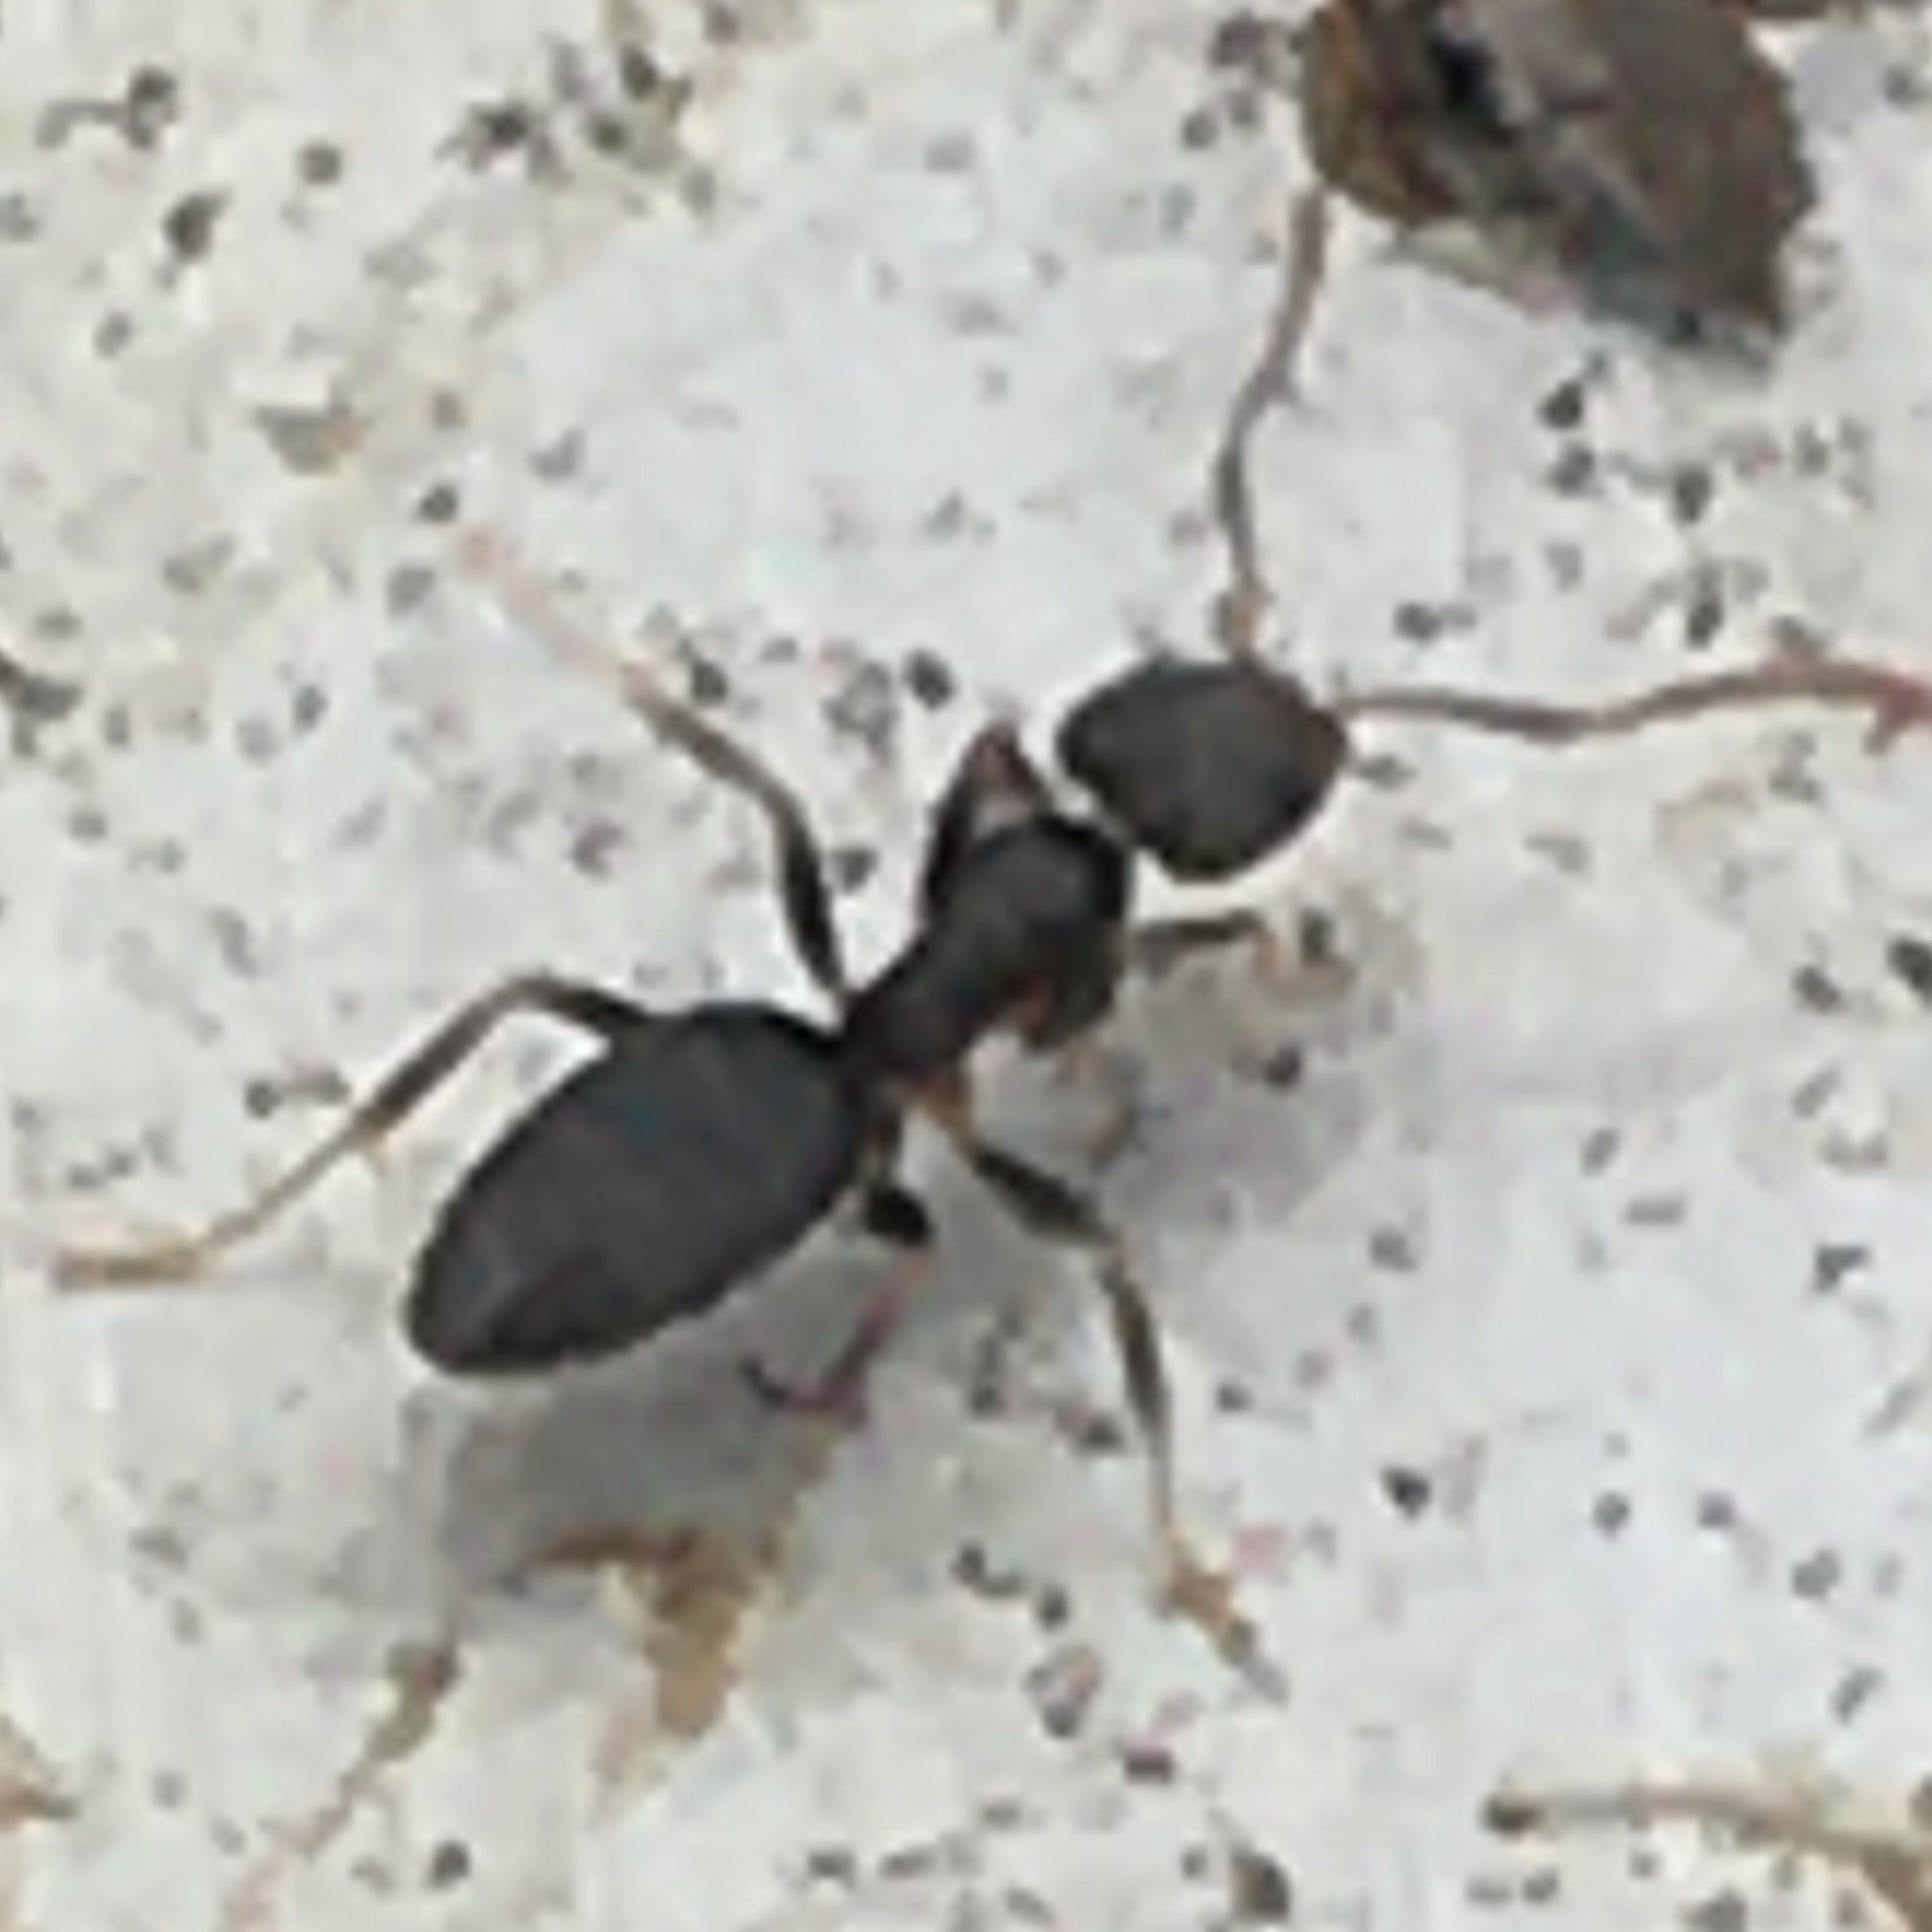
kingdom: Animalia
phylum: Arthropoda
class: Insecta
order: Hymenoptera
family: Formicidae
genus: Tapinoma
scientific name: Tapinoma sessile
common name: Odorous house ant
